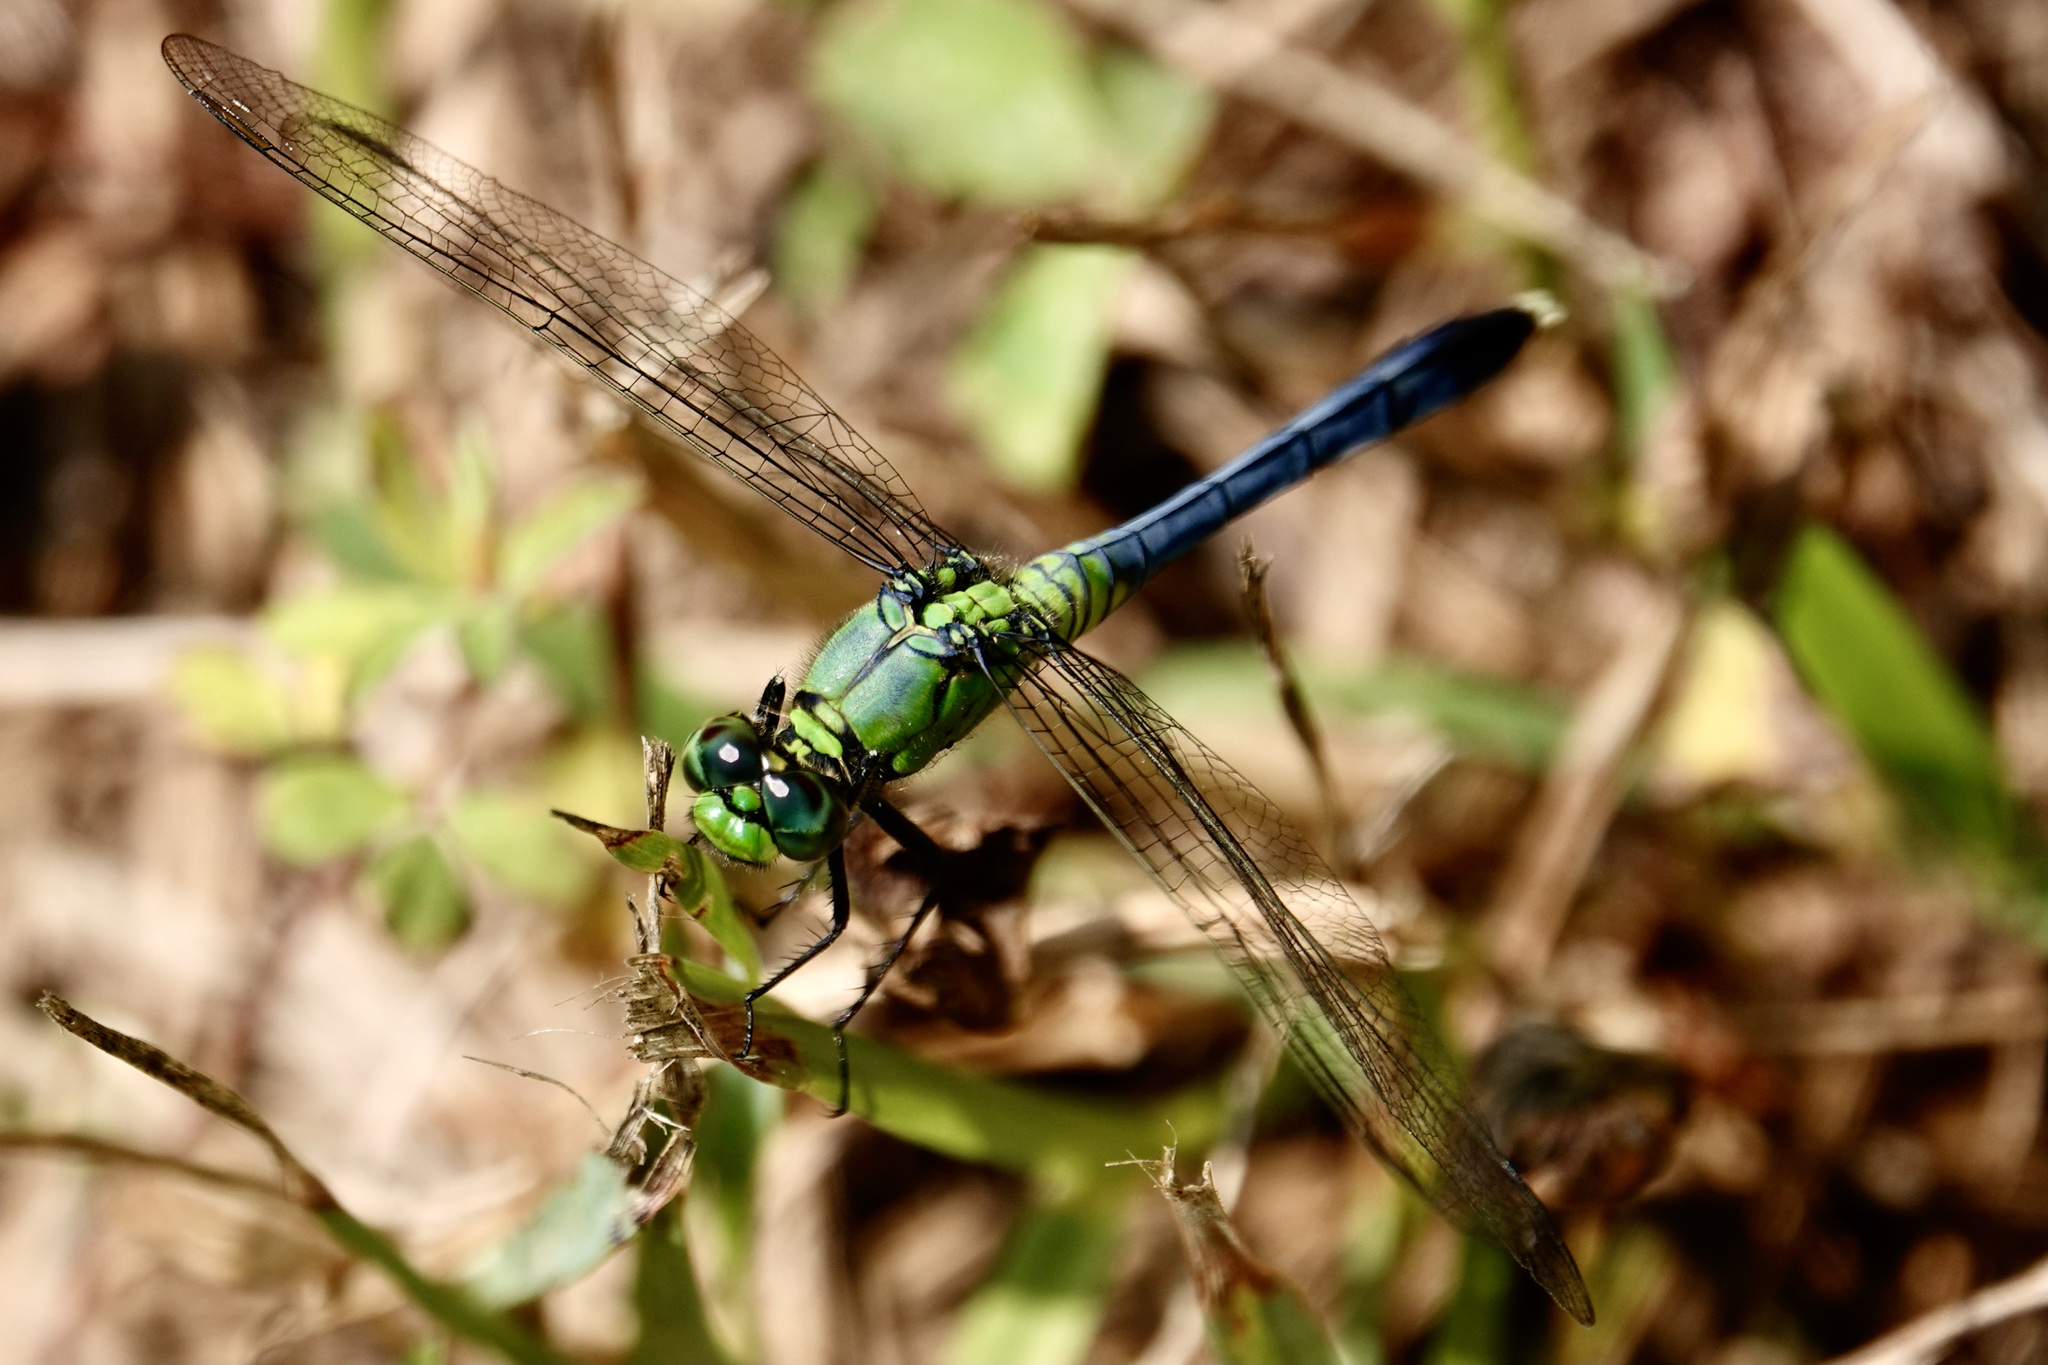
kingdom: Animalia
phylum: Arthropoda
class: Insecta
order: Odonata
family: Libellulidae
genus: Erythemis
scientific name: Erythemis simplicicollis
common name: Eastern pondhawk
